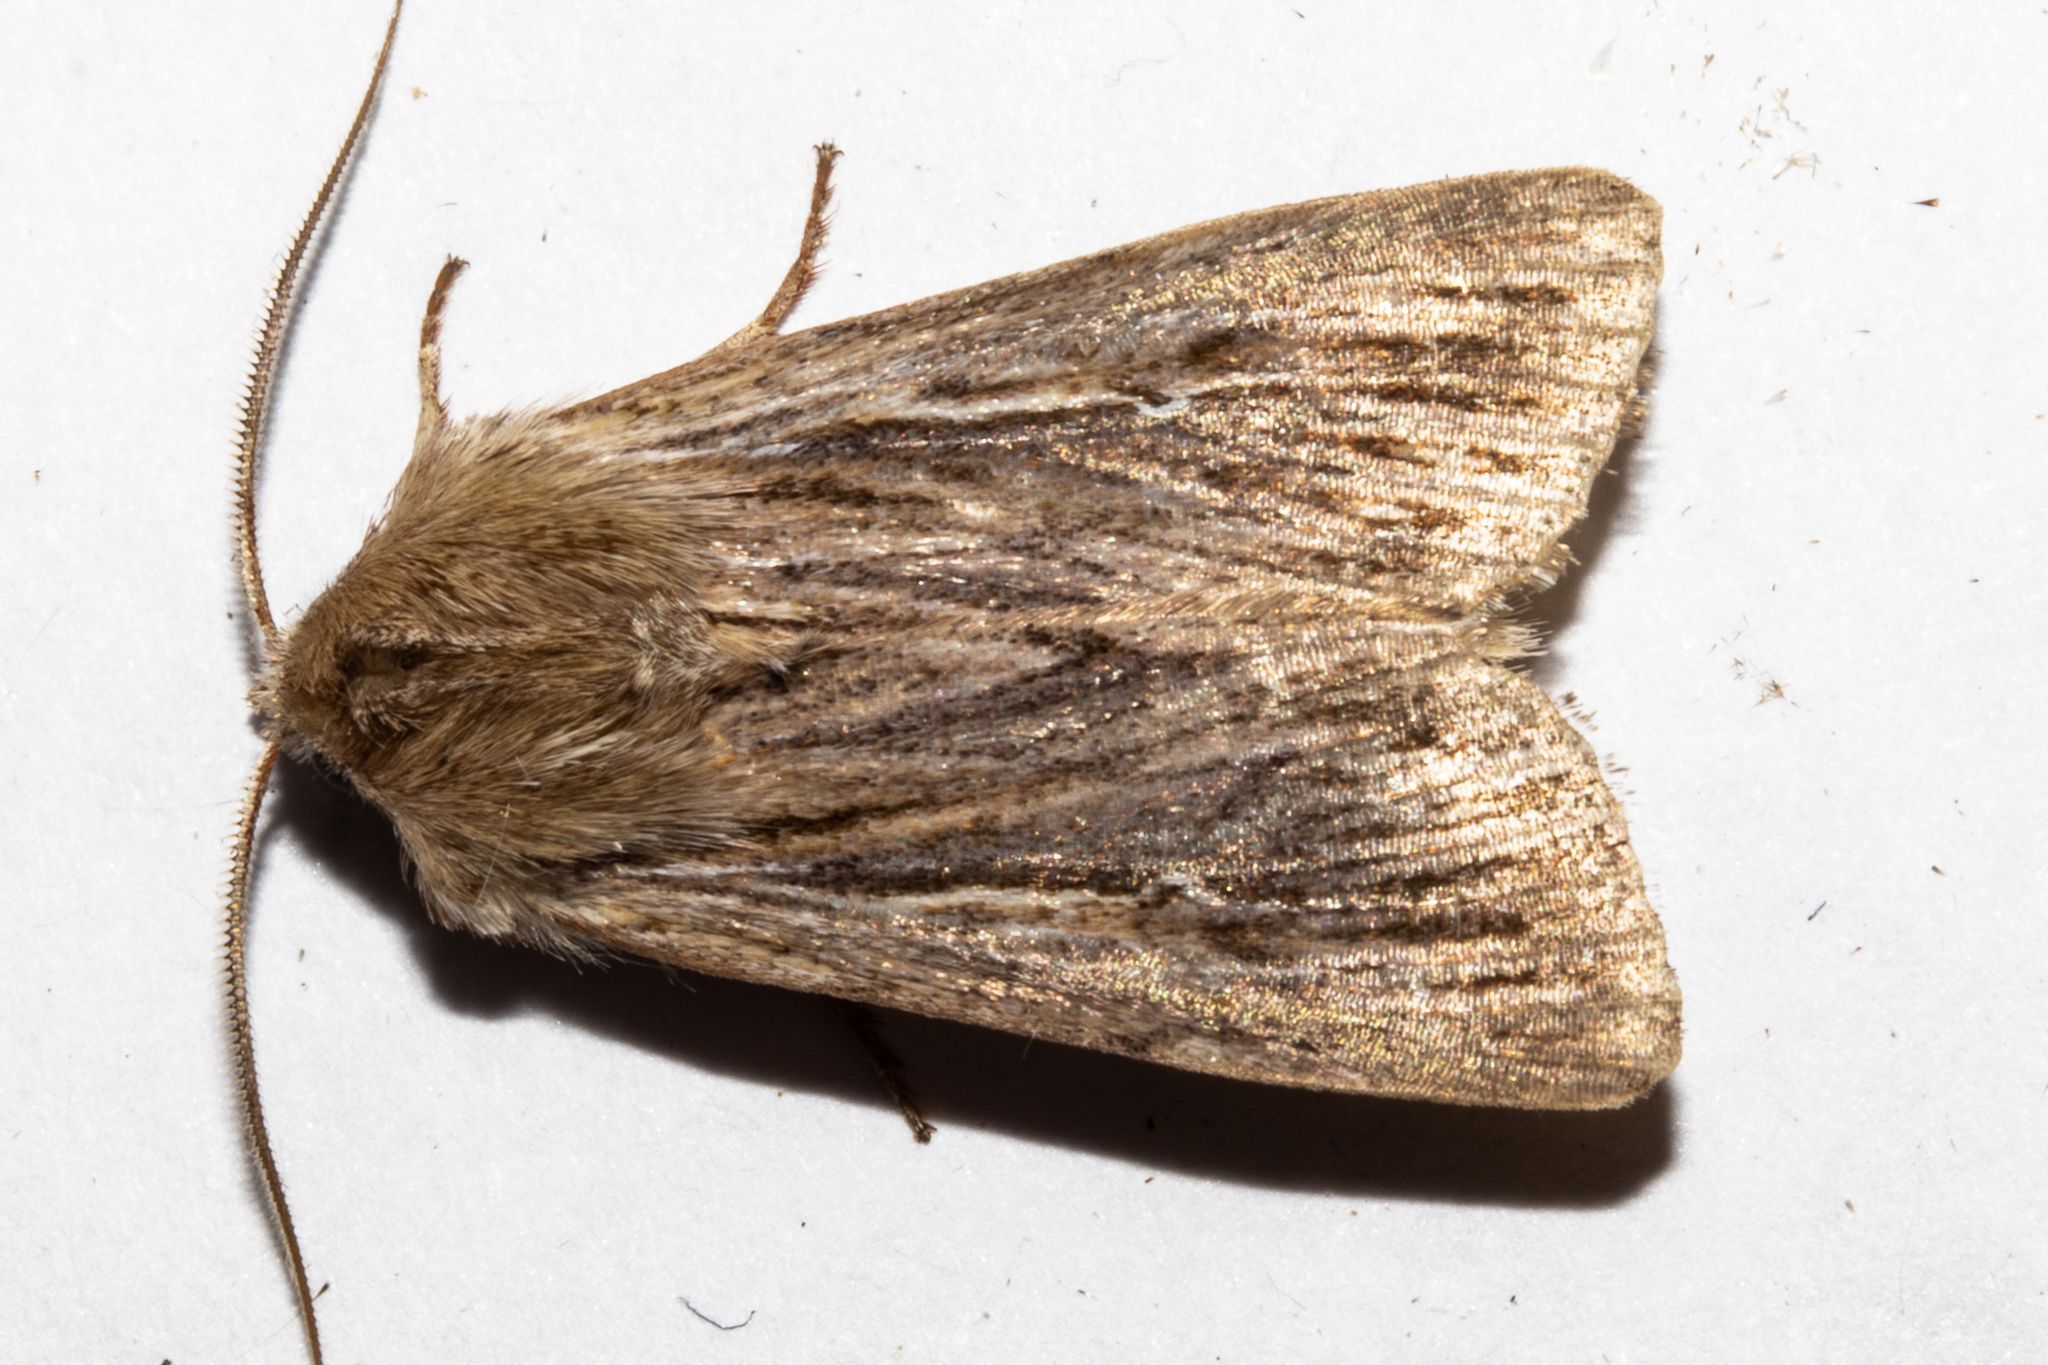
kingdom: Animalia
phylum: Arthropoda
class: Insecta
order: Lepidoptera
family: Noctuidae
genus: Persectania
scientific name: Persectania aversa
